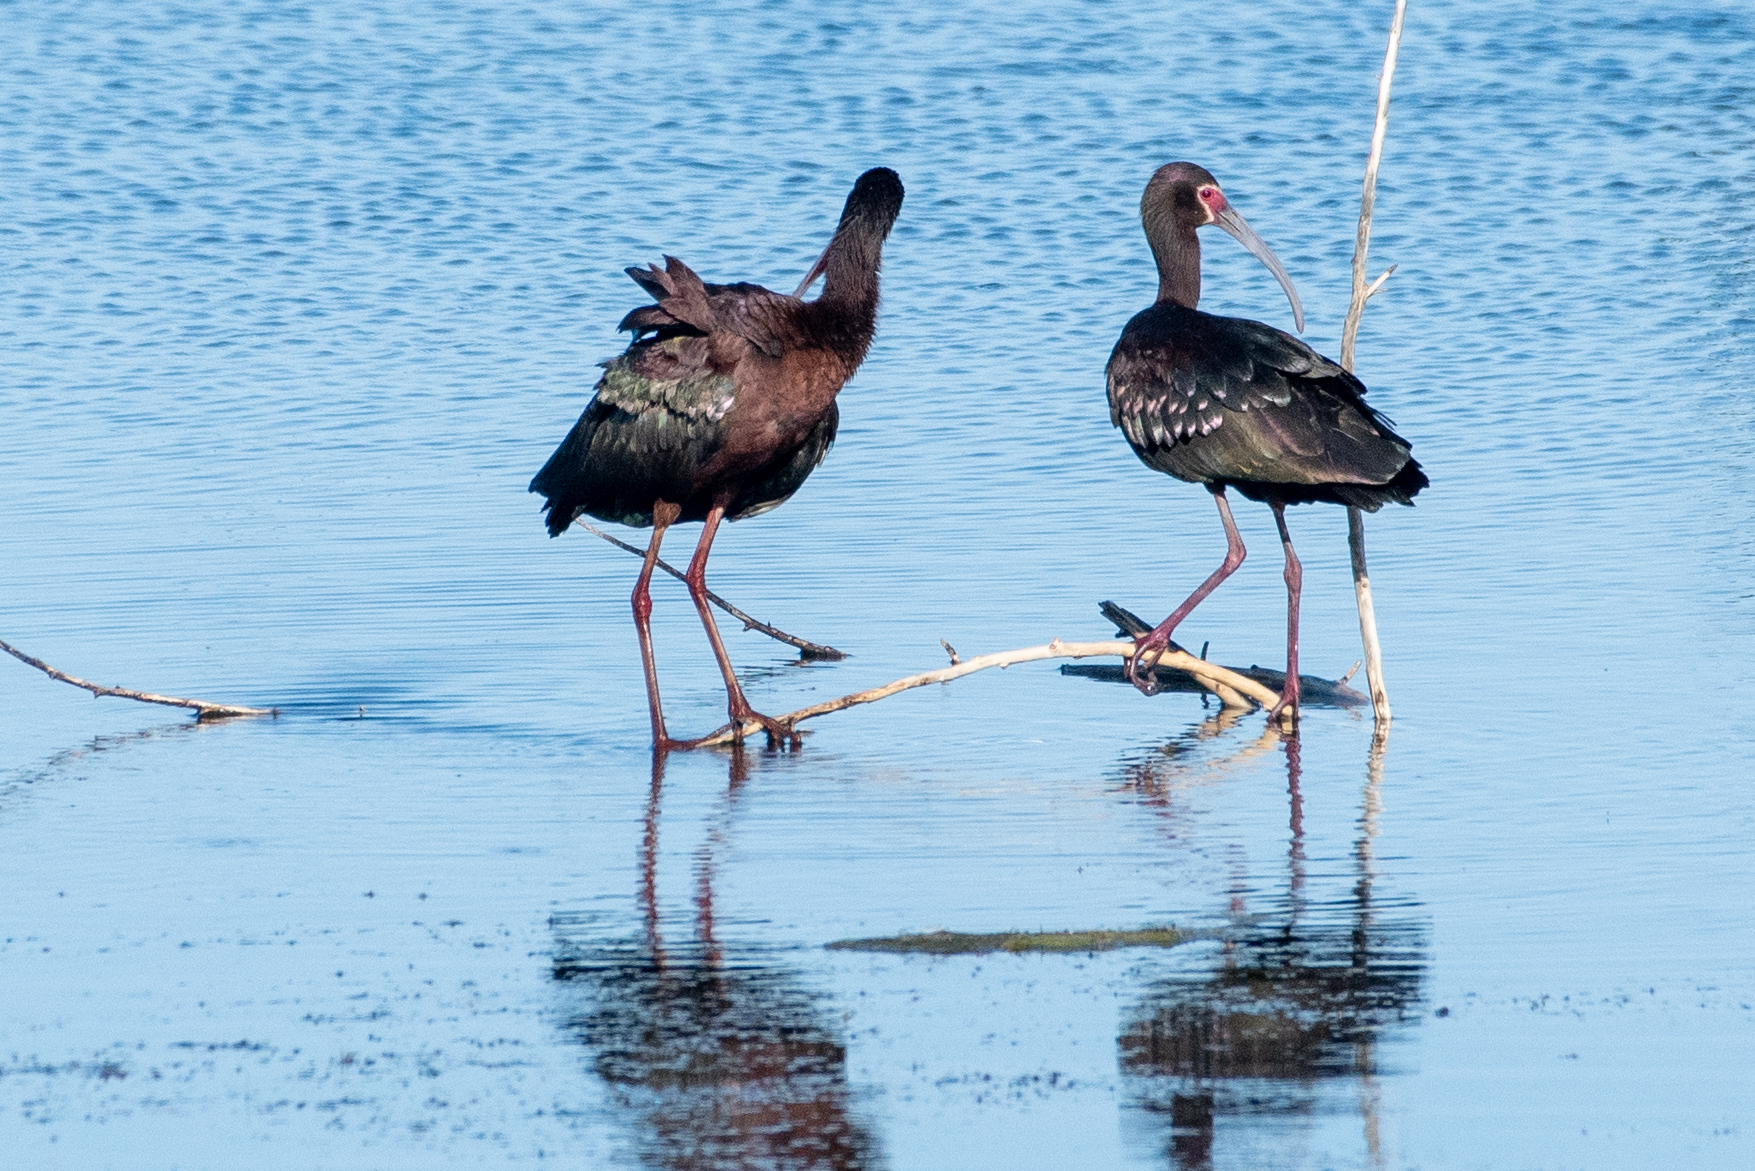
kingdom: Animalia
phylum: Chordata
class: Aves
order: Pelecaniformes
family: Threskiornithidae
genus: Plegadis
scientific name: Plegadis chihi
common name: White-faced ibis
